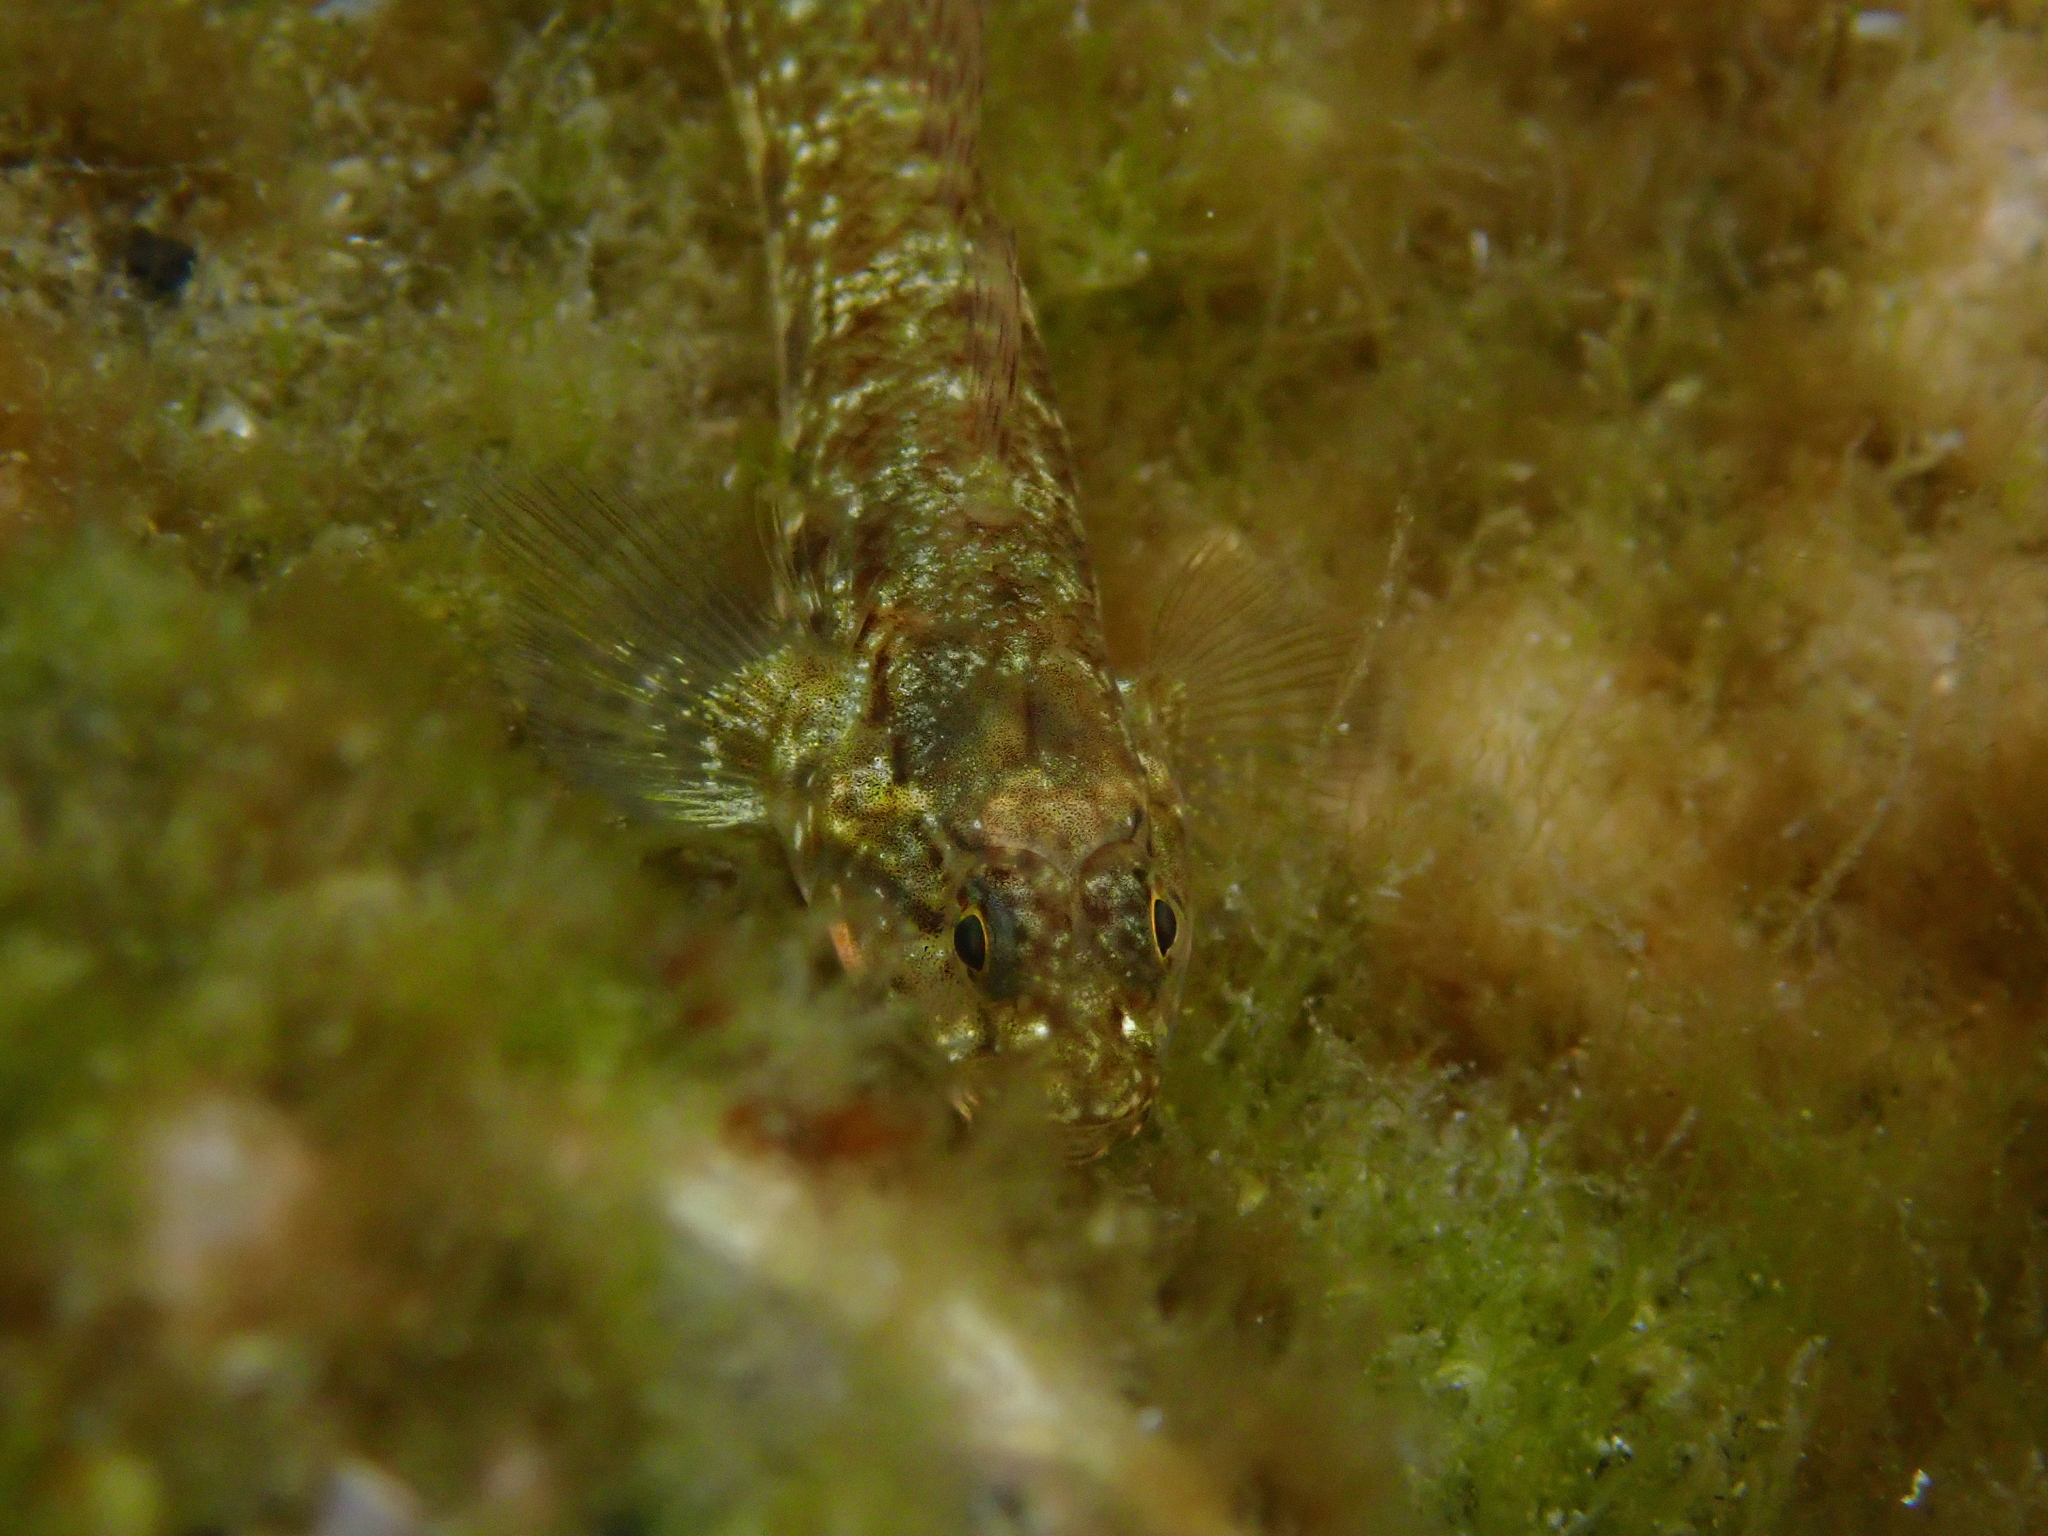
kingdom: Animalia
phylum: Chordata
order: Perciformes
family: Gobiidae
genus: Bathygobius
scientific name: Bathygobius cocosensis
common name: Cocos frillgoby
